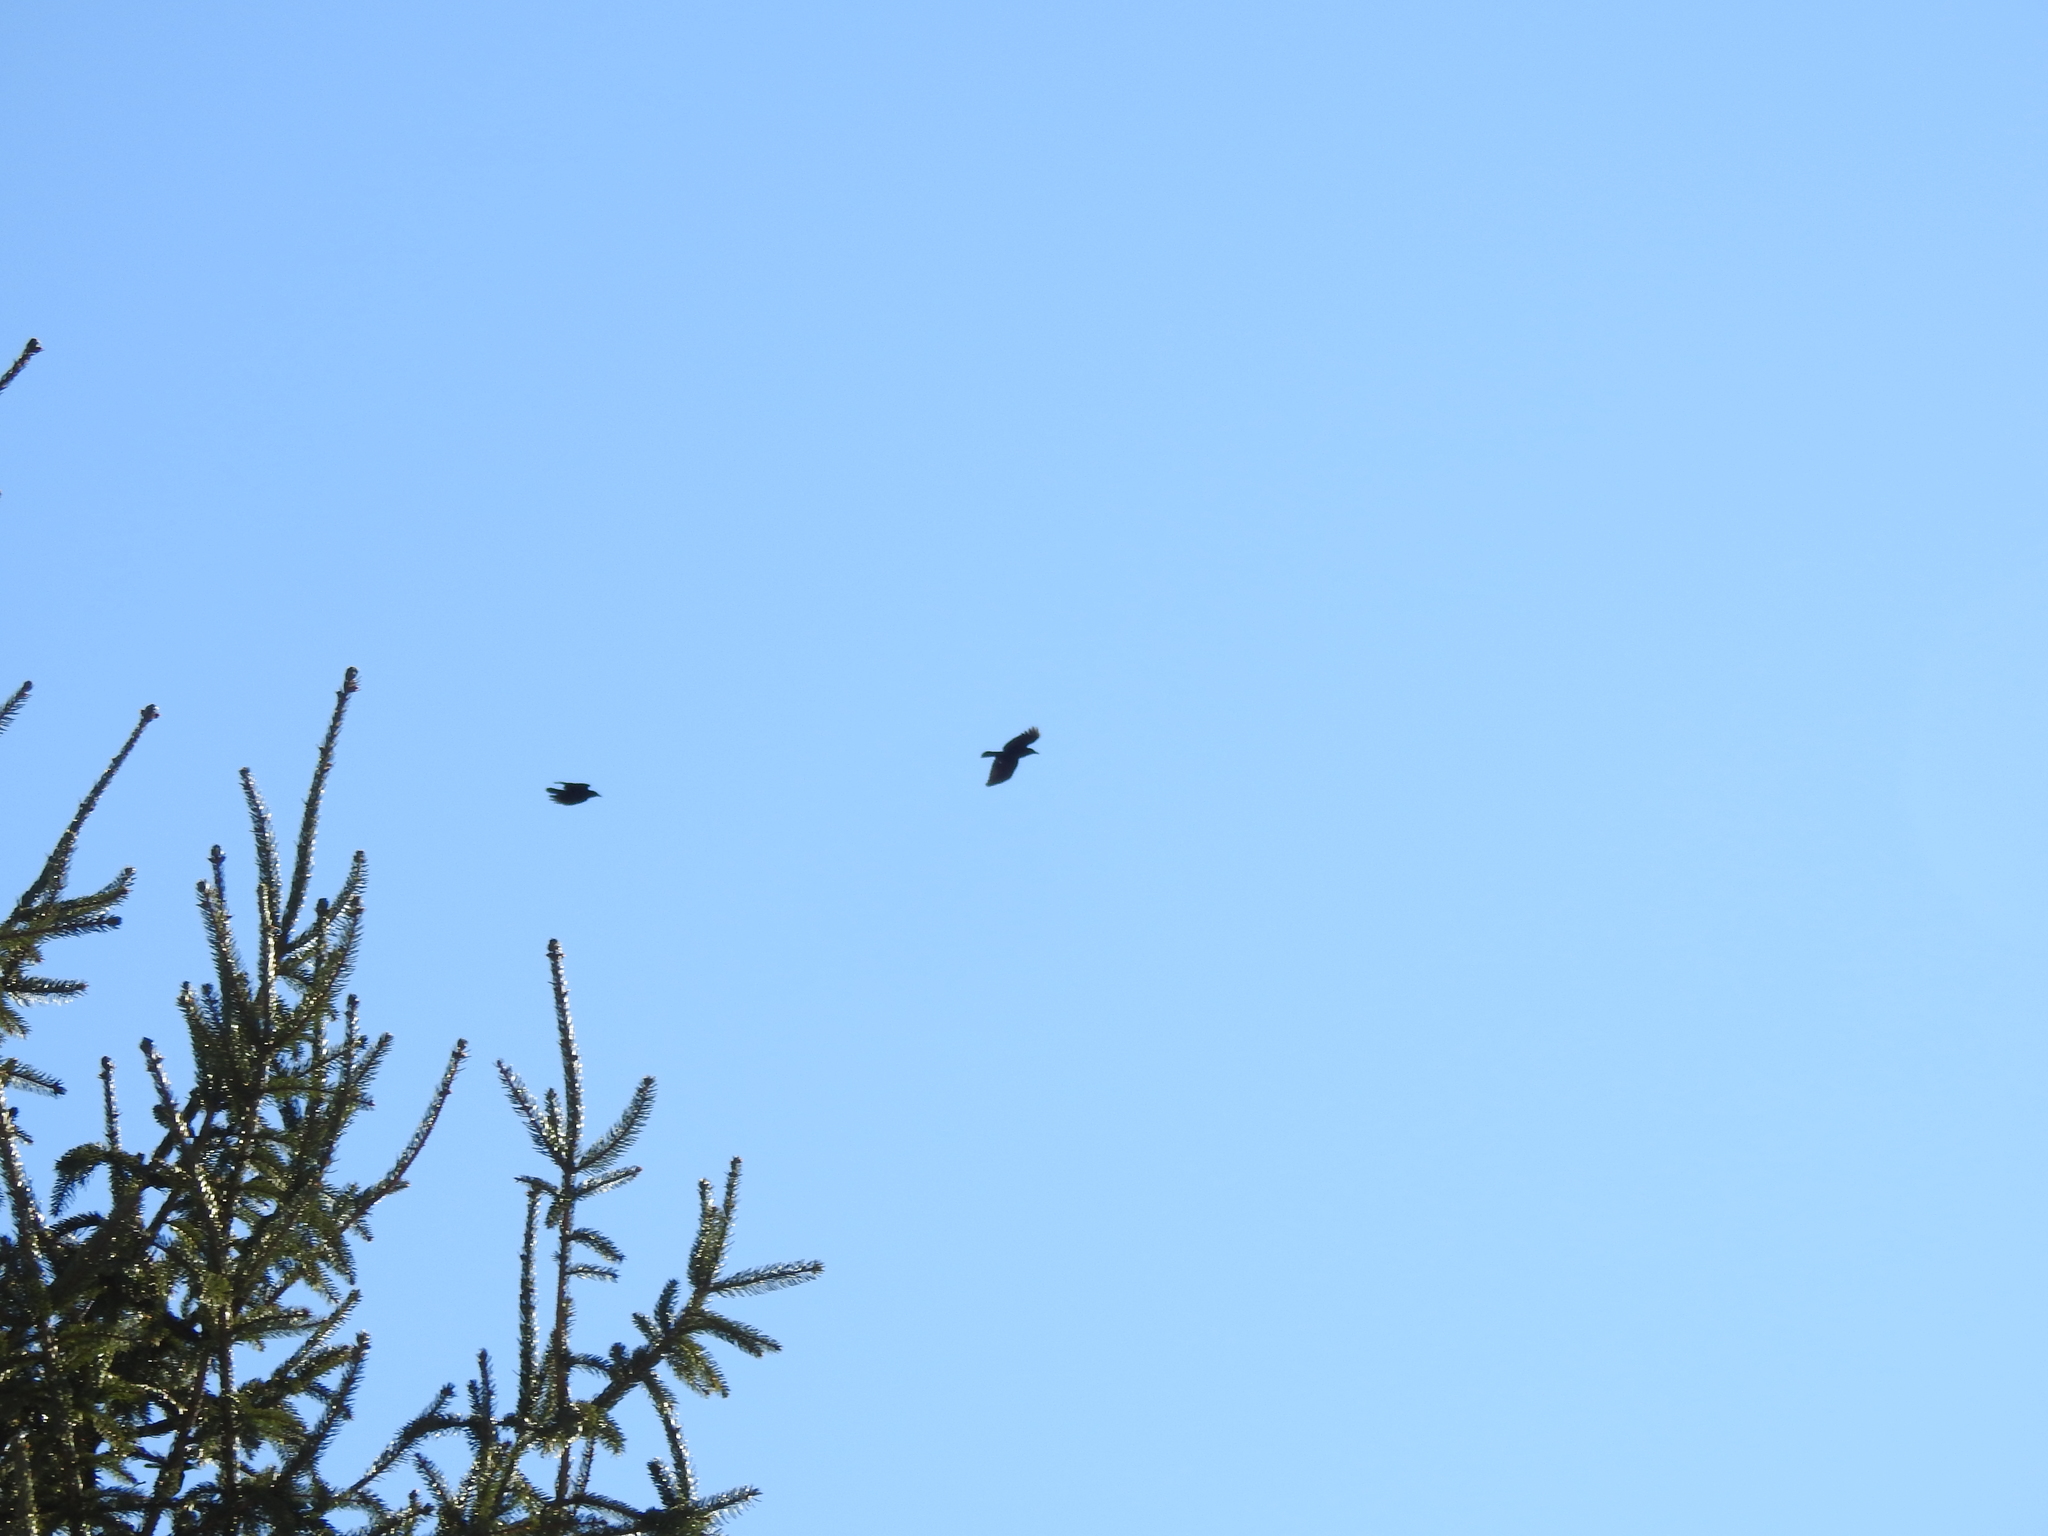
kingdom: Animalia
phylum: Chordata
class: Aves
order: Passeriformes
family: Corvidae
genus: Corvus
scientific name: Corvus brachyrhynchos
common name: American crow
